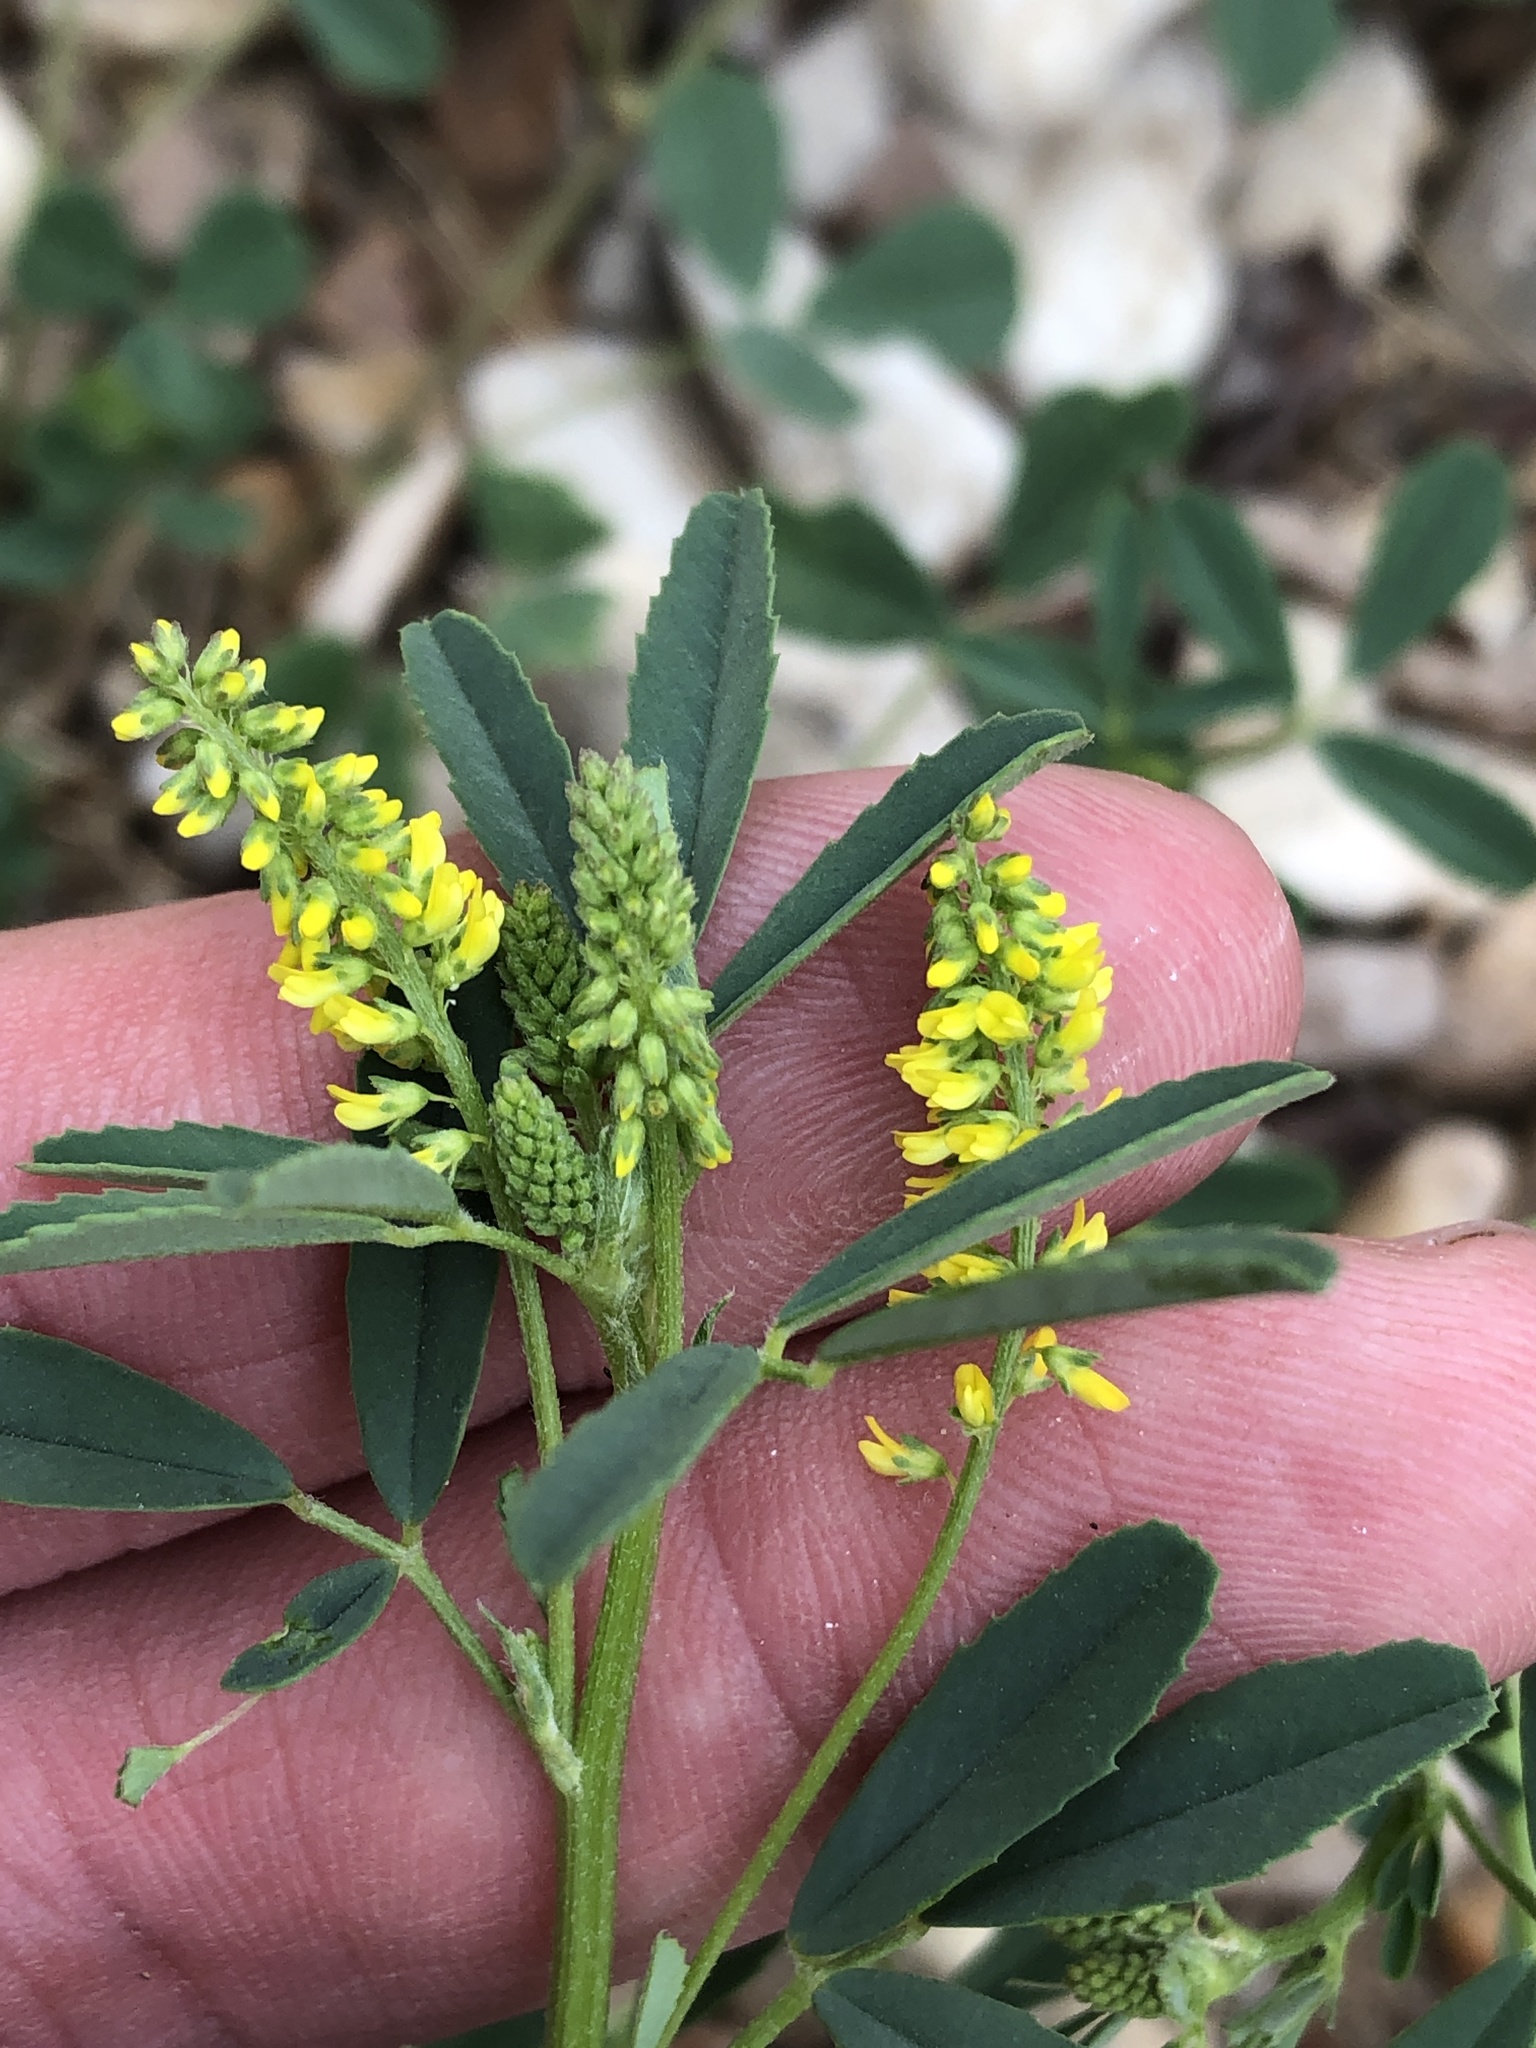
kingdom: Plantae
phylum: Tracheophyta
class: Magnoliopsida
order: Fabales
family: Fabaceae
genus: Melilotus
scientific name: Melilotus indicus
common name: Small melilot
